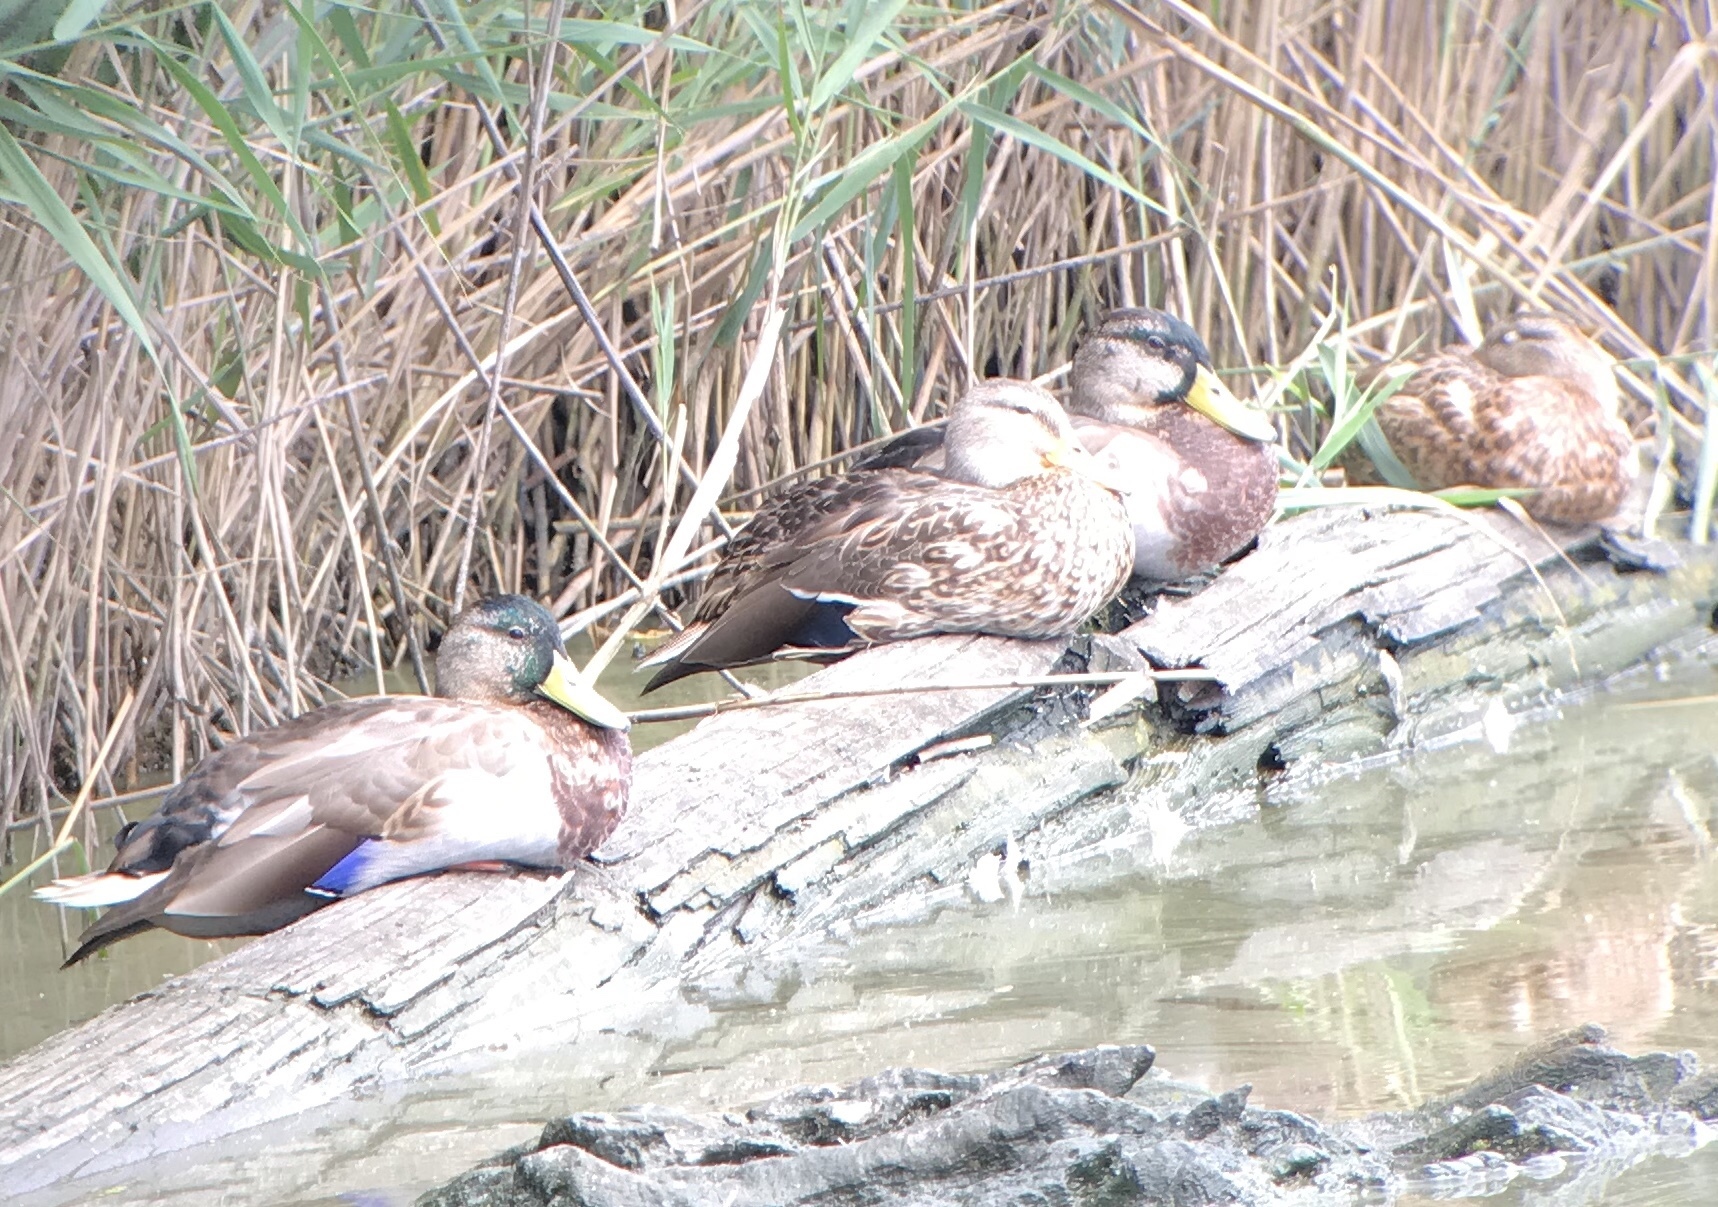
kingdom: Animalia
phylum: Chordata
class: Aves
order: Anseriformes
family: Anatidae
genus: Anas
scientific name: Anas platyrhynchos
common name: Mallard
